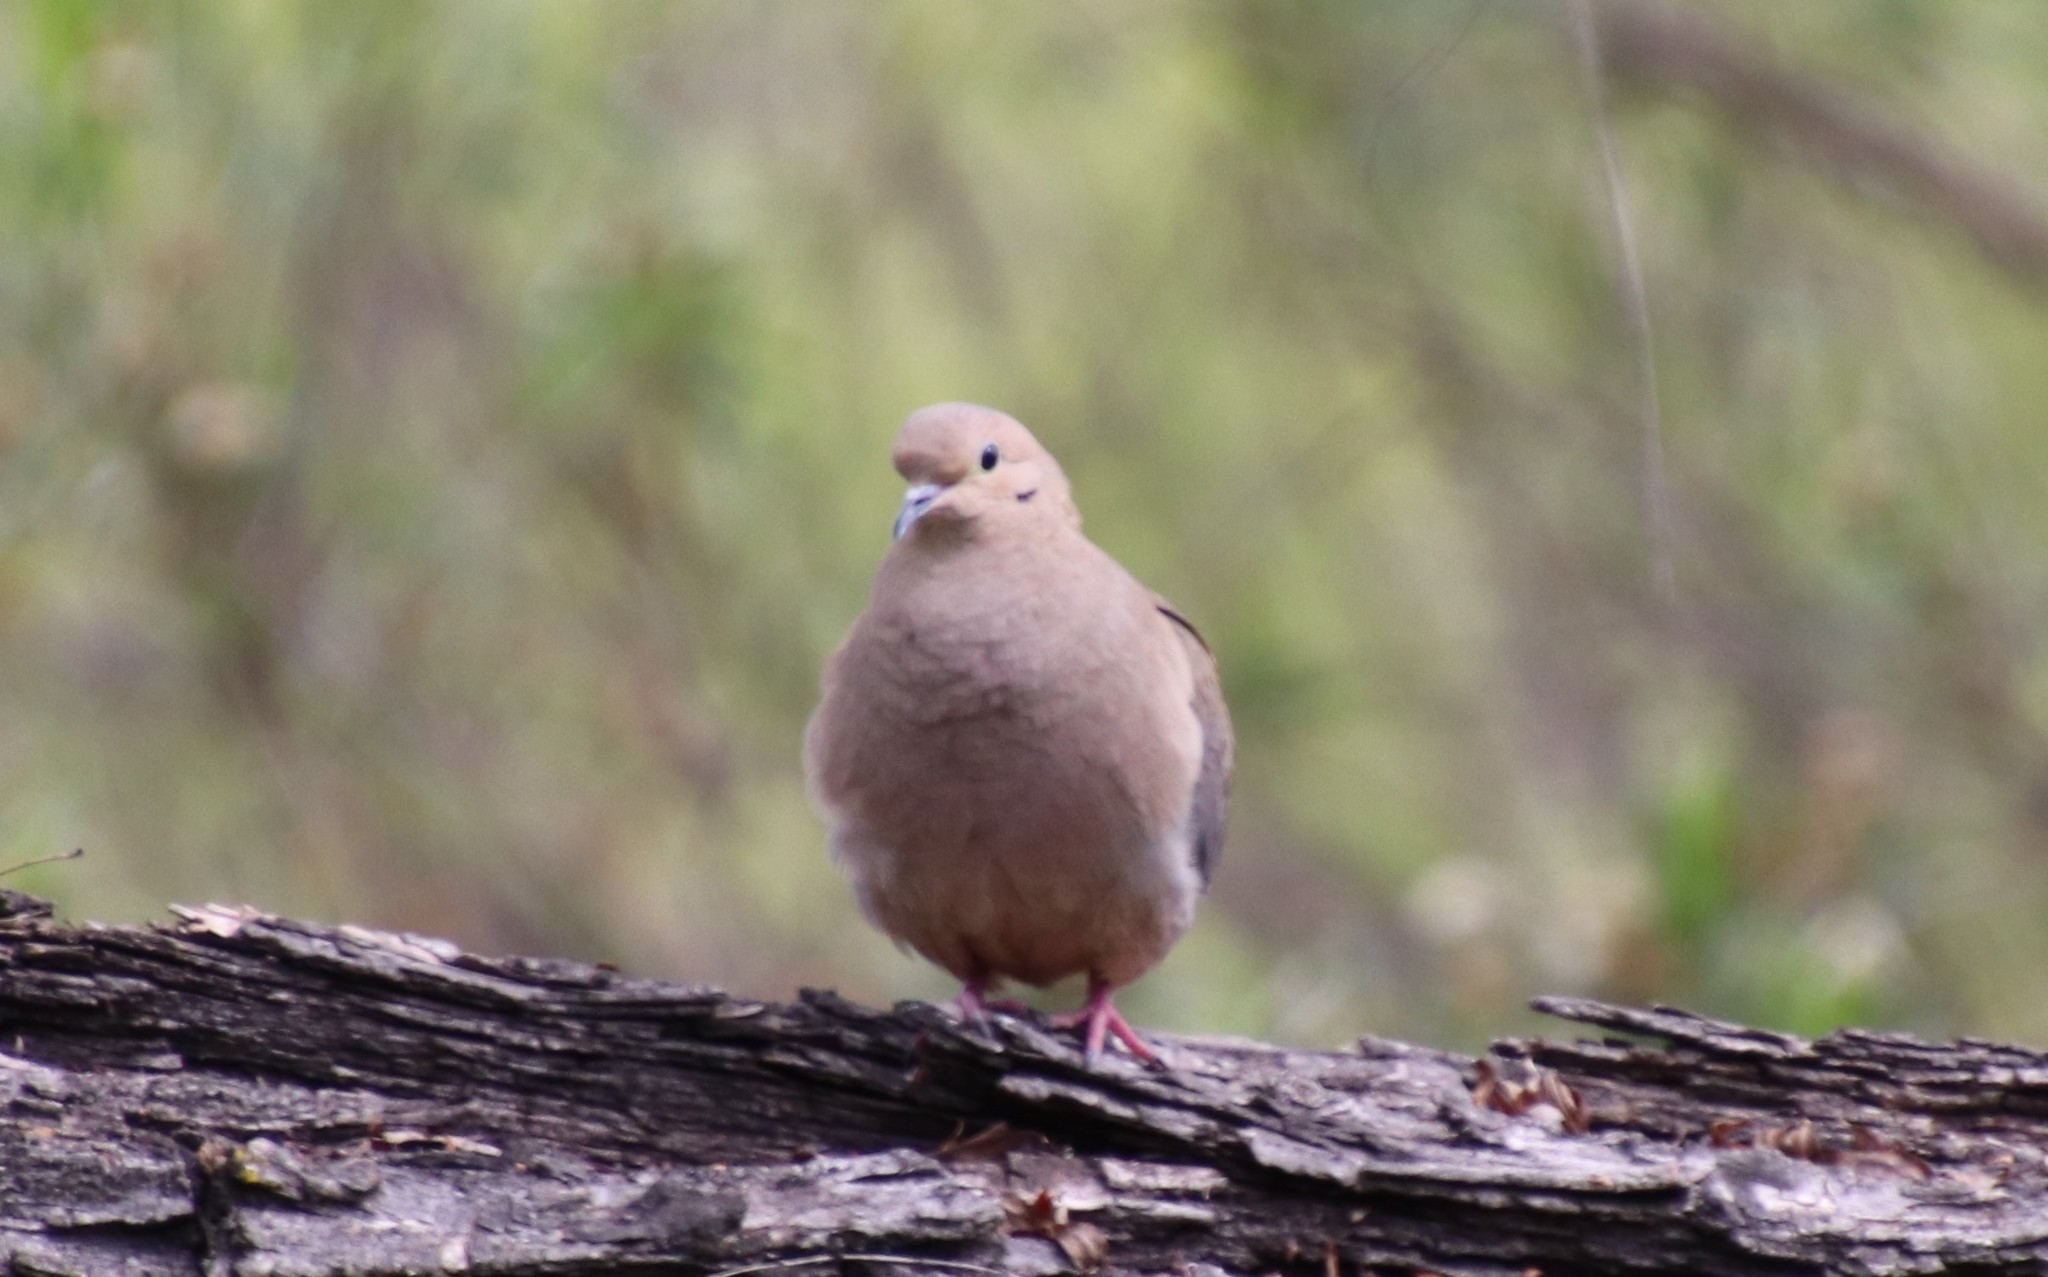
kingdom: Animalia
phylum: Chordata
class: Aves
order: Columbiformes
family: Columbidae
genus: Zenaida
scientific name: Zenaida macroura
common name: Mourning dove
